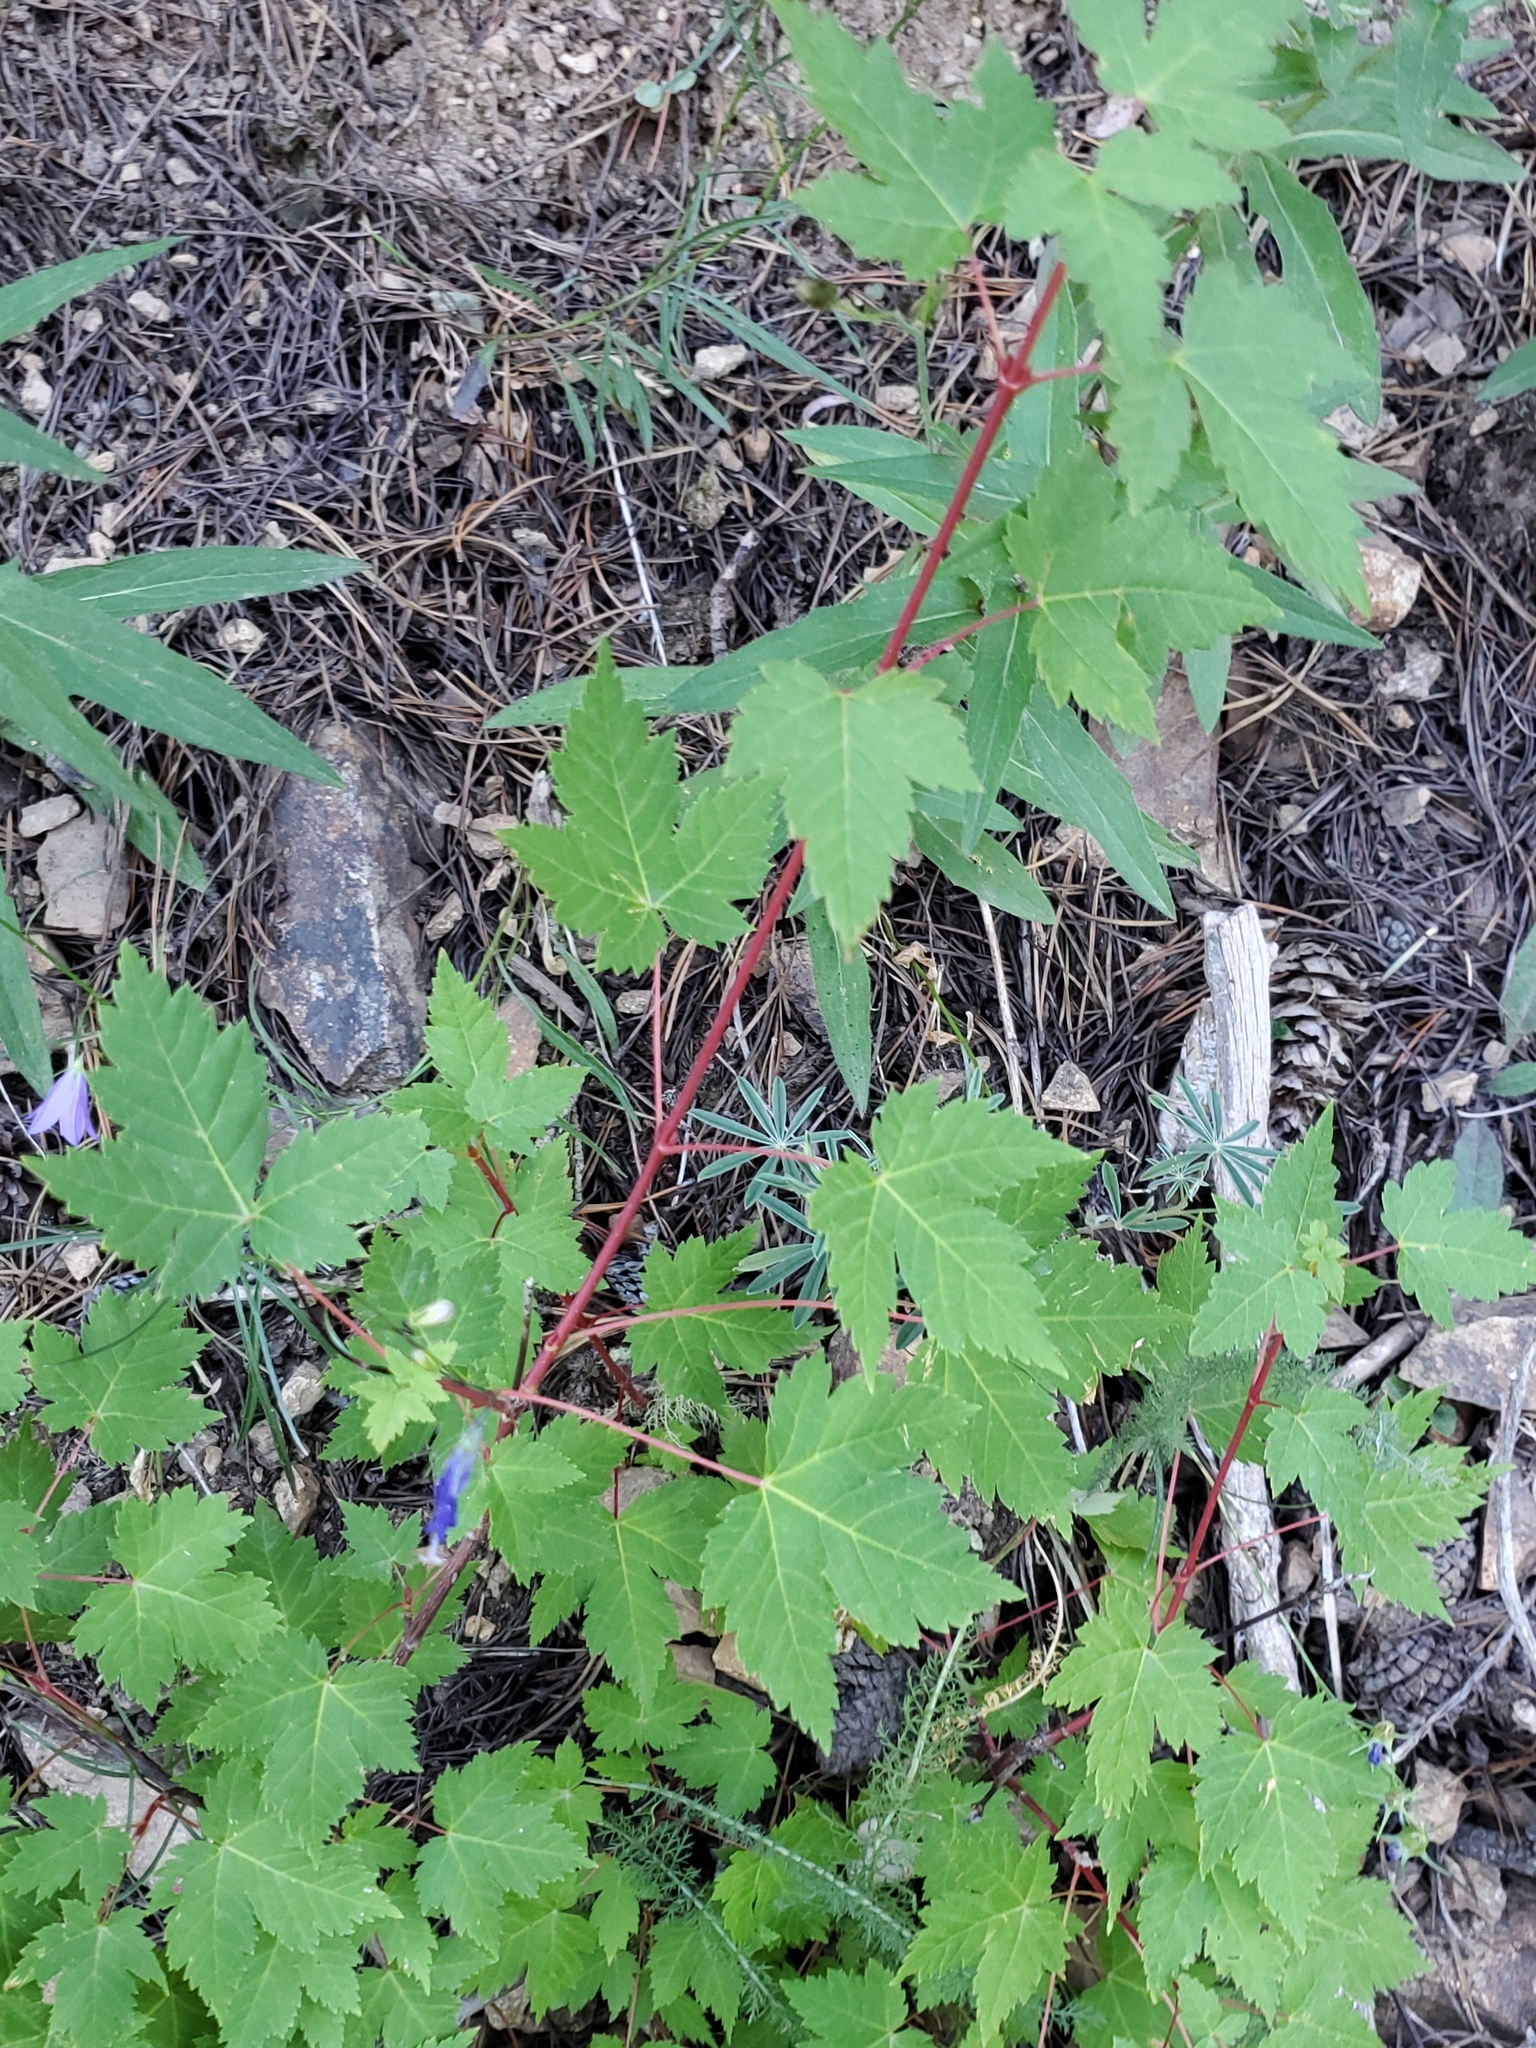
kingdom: Plantae
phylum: Tracheophyta
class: Magnoliopsida
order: Sapindales
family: Sapindaceae
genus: Acer
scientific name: Acer glabrum
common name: Rocky mountain maple
